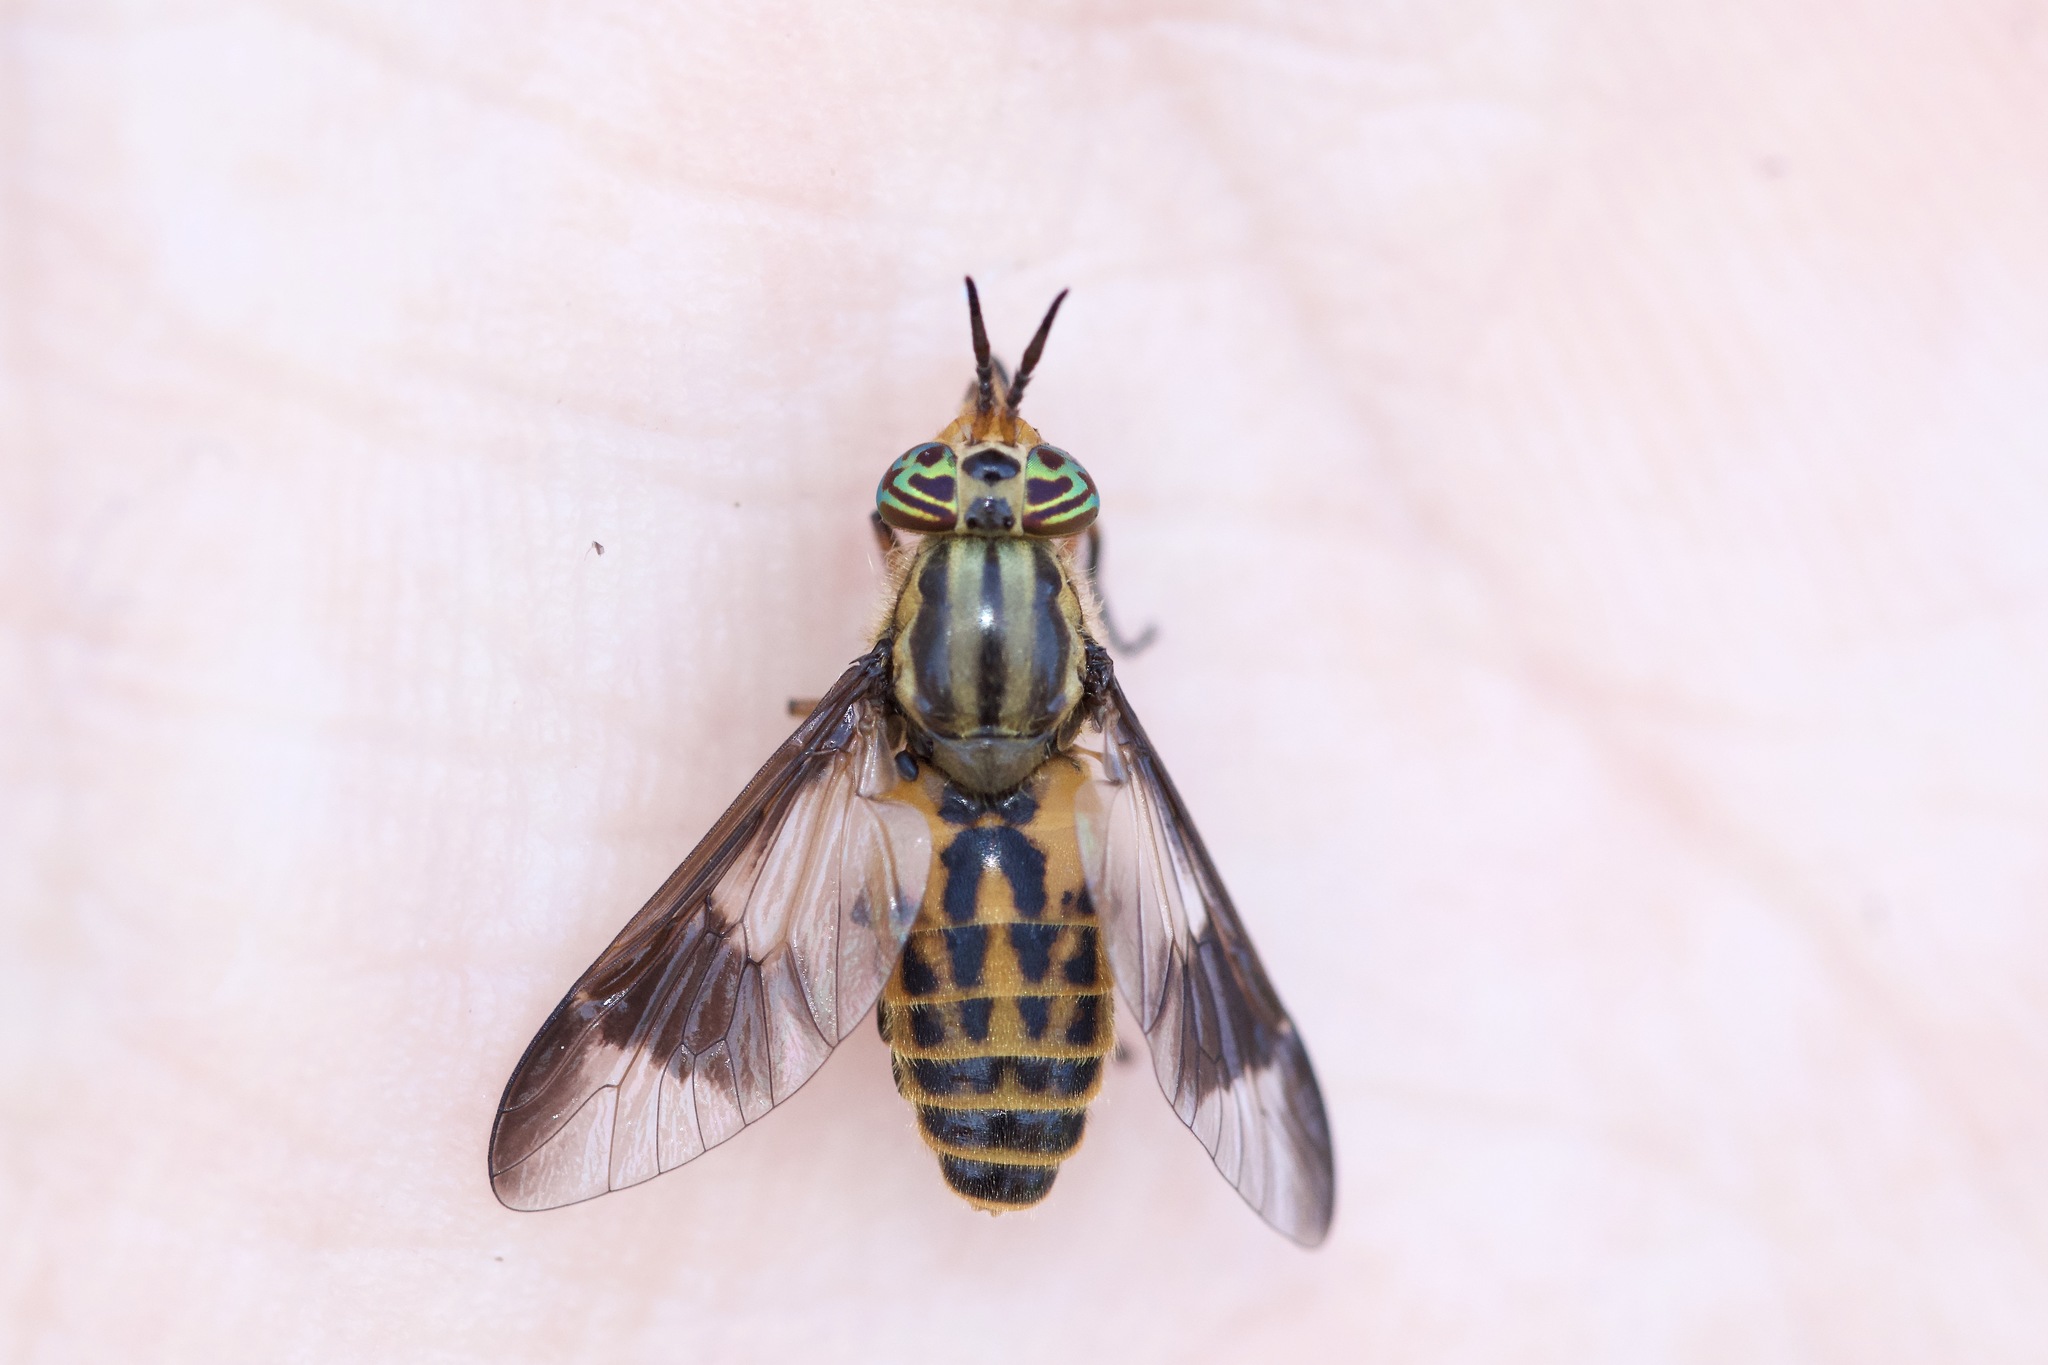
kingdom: Animalia
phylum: Arthropoda
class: Insecta
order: Diptera
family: Tabanidae
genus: Chrysops
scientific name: Chrysops montanus
